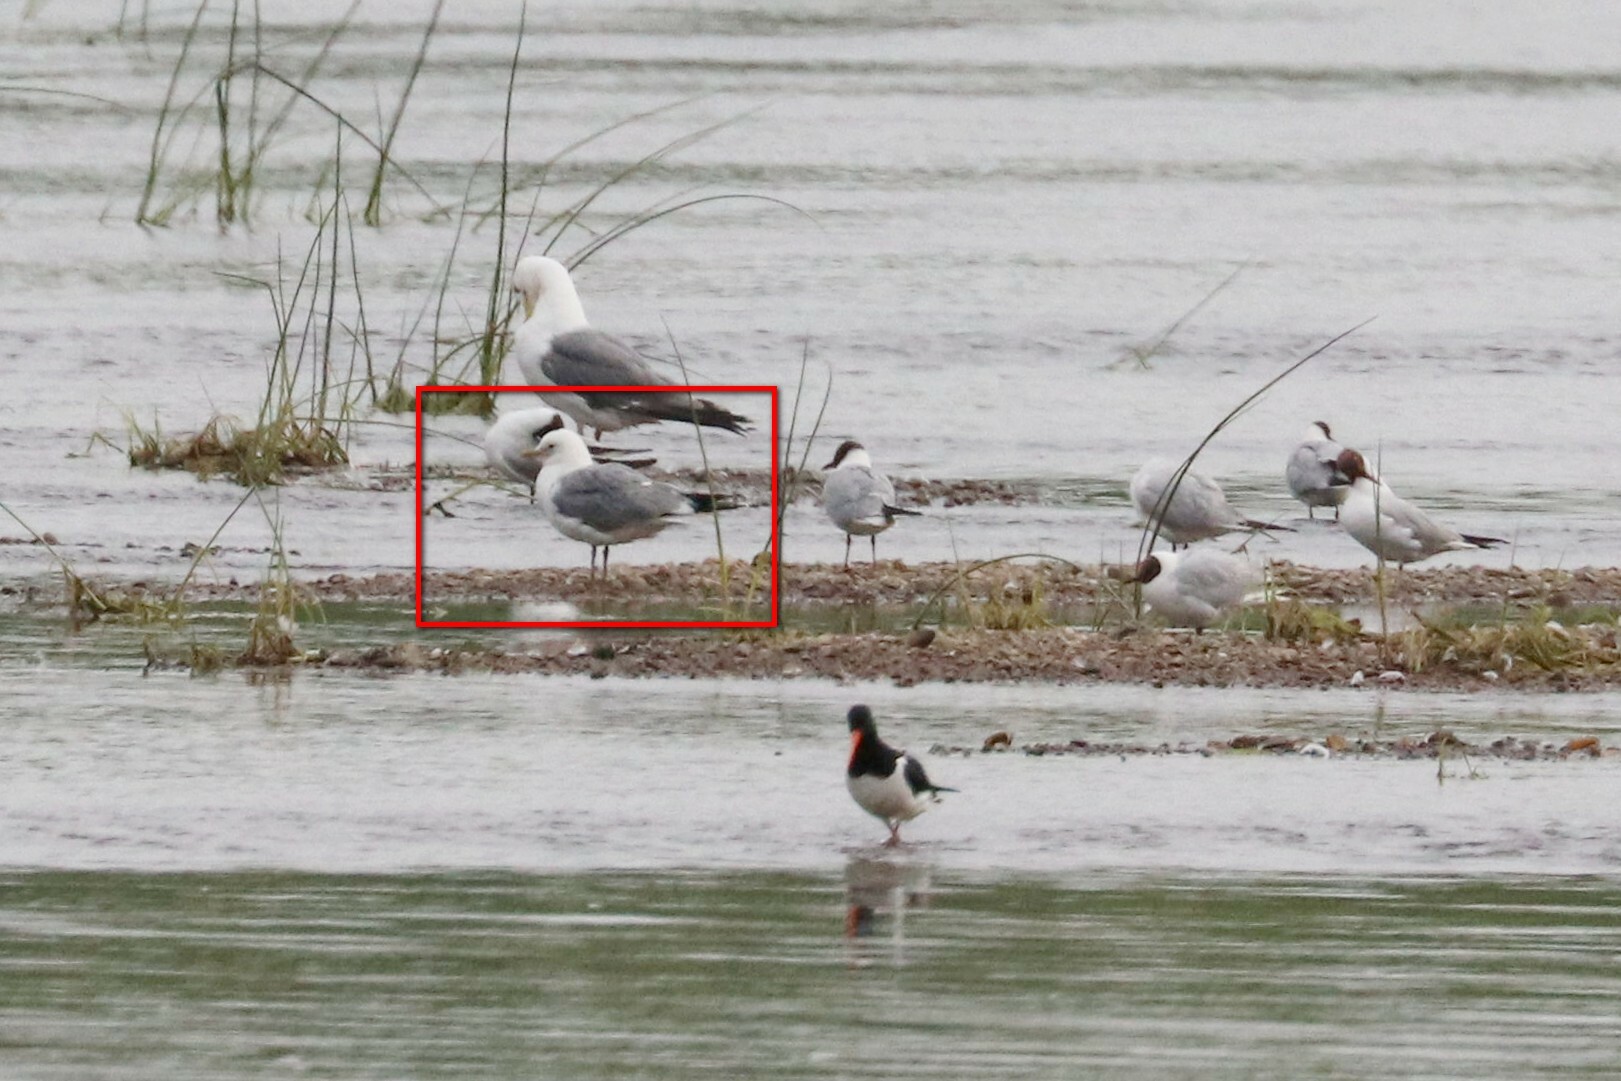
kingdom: Animalia
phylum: Chordata
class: Aves
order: Charadriiformes
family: Laridae
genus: Larus
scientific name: Larus canus
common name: Mew gull
